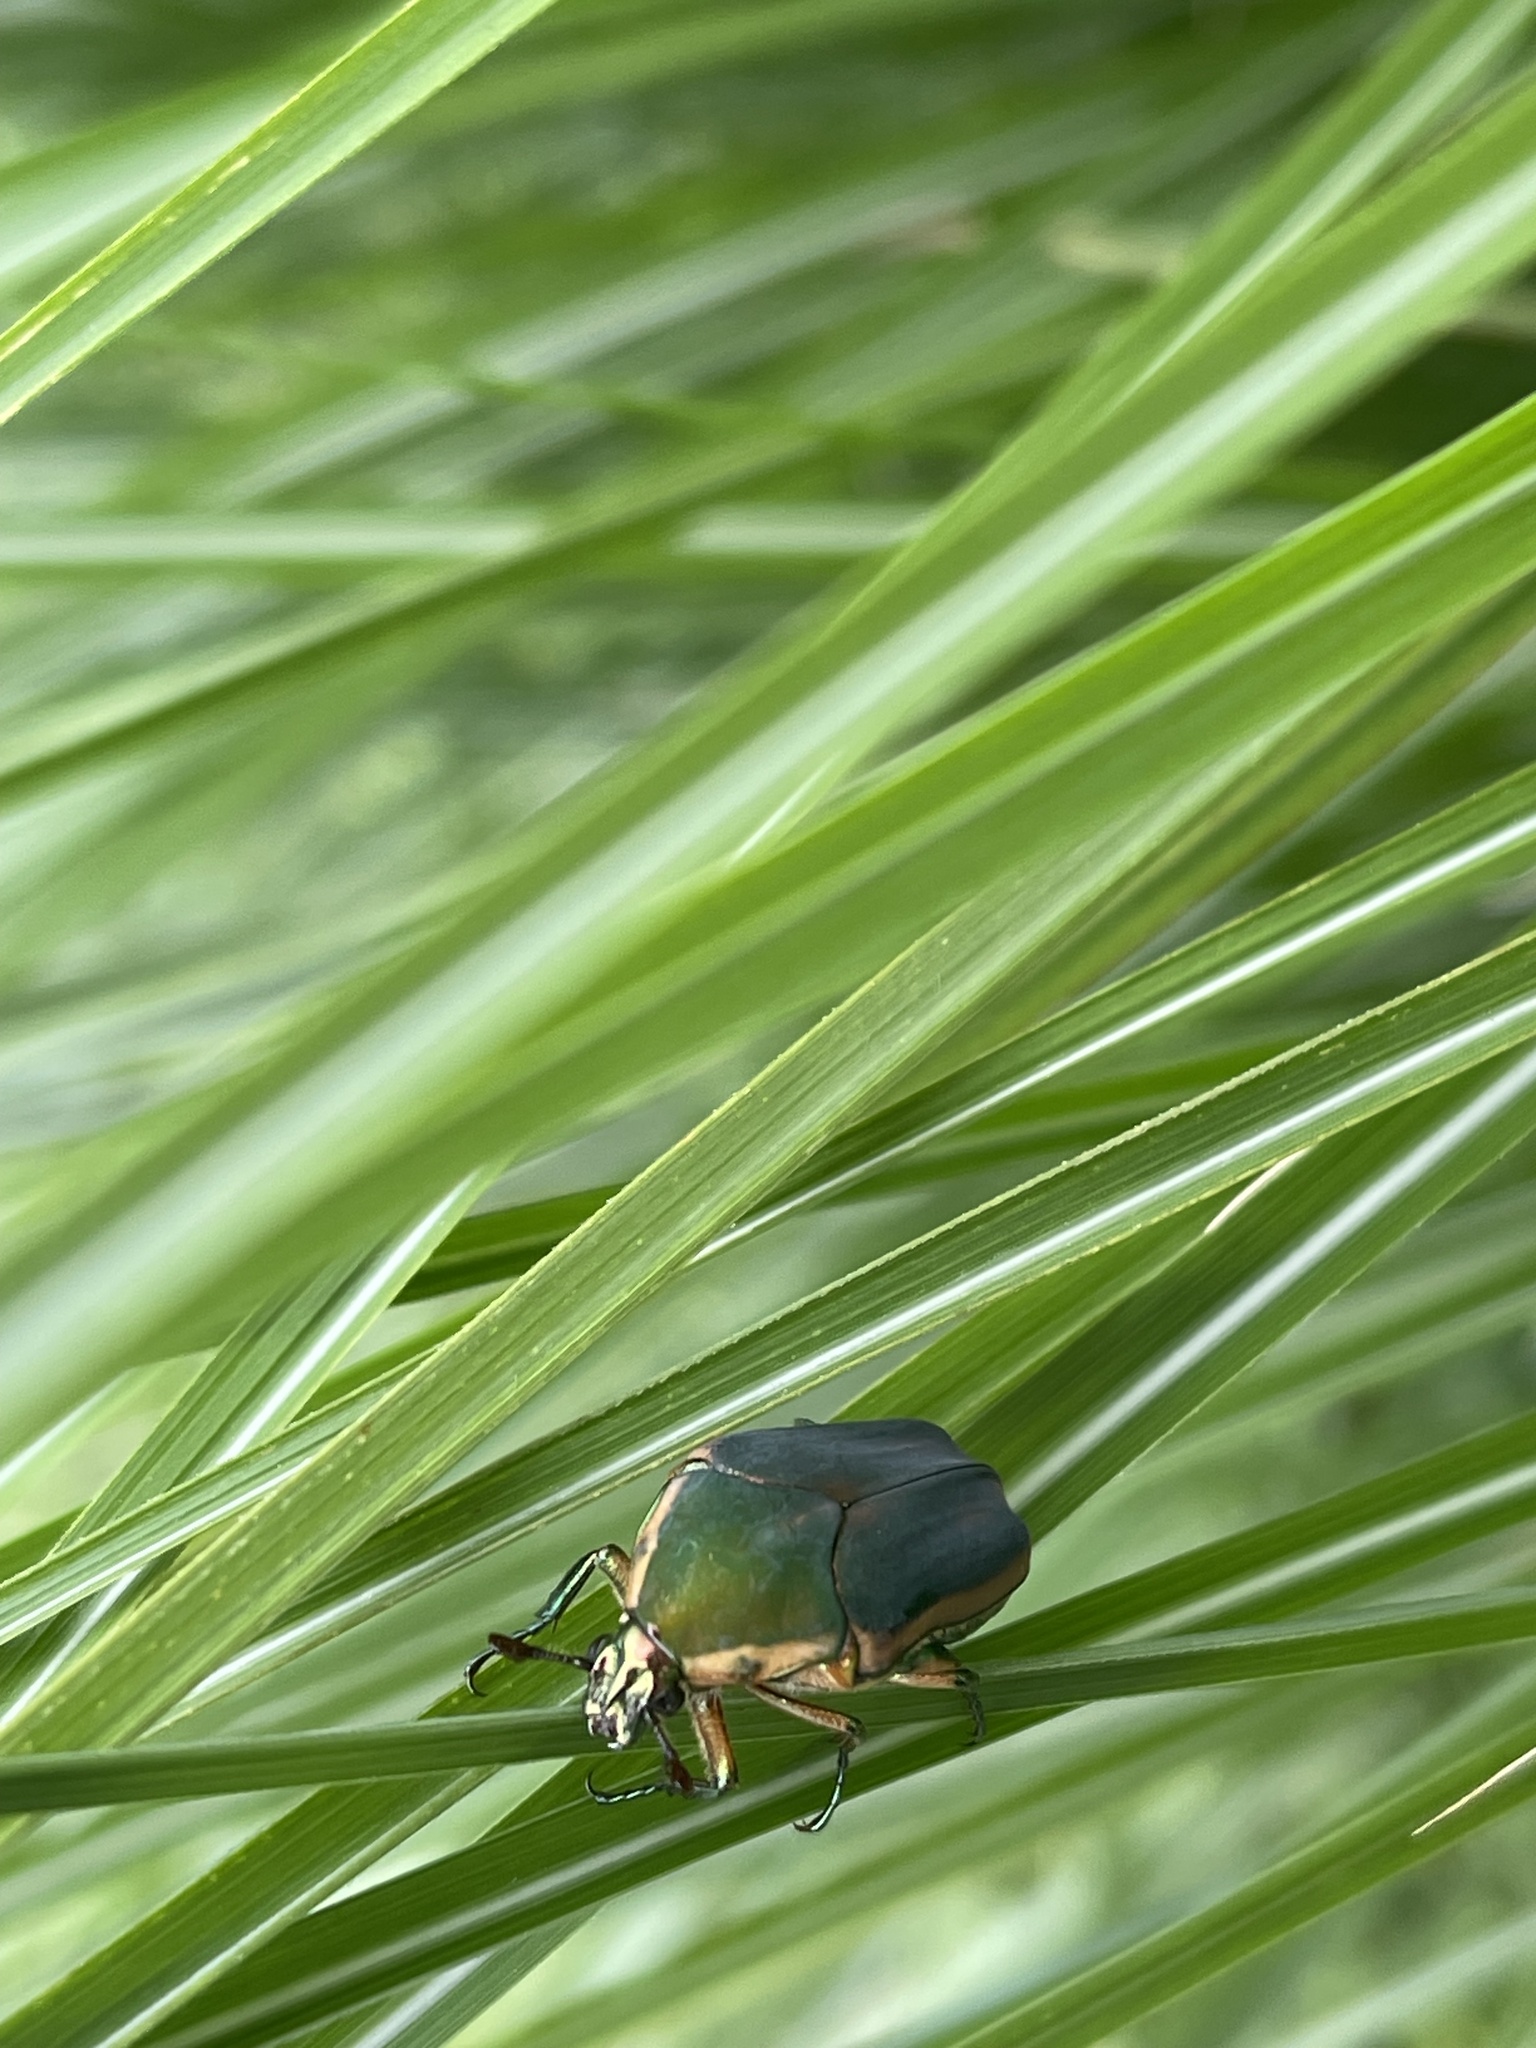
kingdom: Animalia
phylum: Arthropoda
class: Insecta
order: Coleoptera
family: Scarabaeidae
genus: Cotinis
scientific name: Cotinis nitida
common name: Common green june beetle
